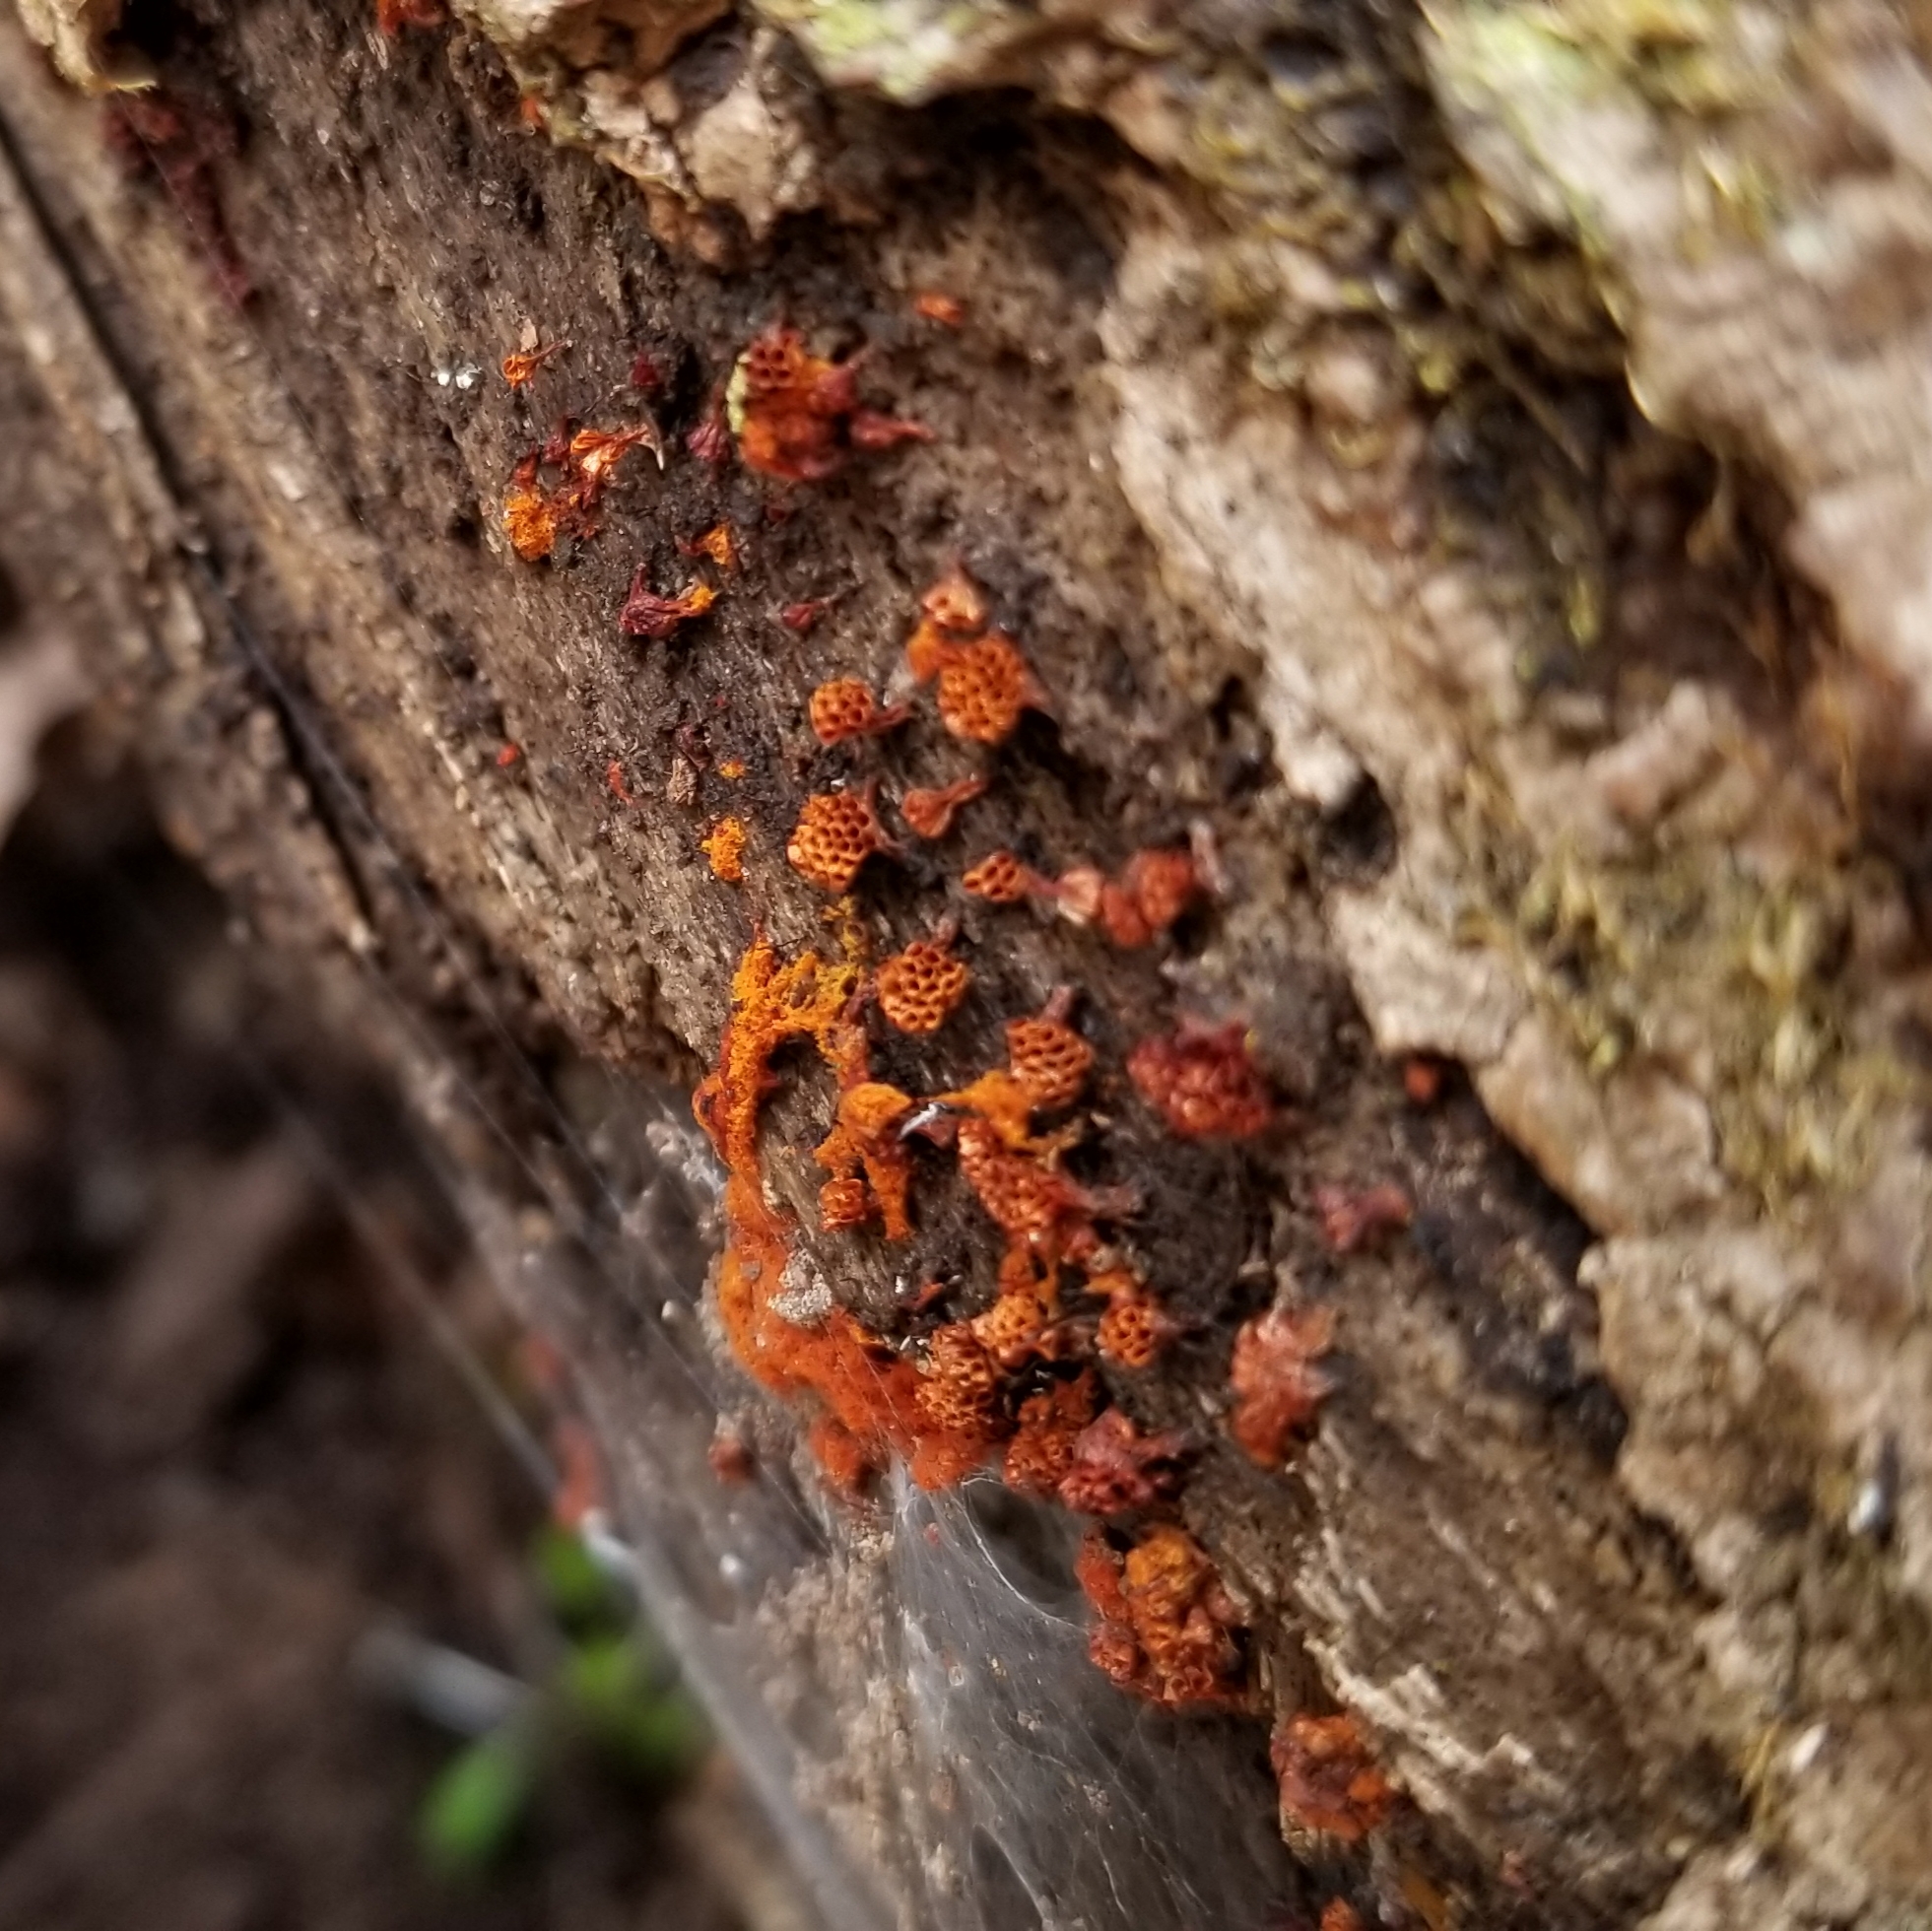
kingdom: Protozoa
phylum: Mycetozoa
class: Myxomycetes
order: Trichiales
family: Trichiaceae
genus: Metatrichia
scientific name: Metatrichia vesparia
